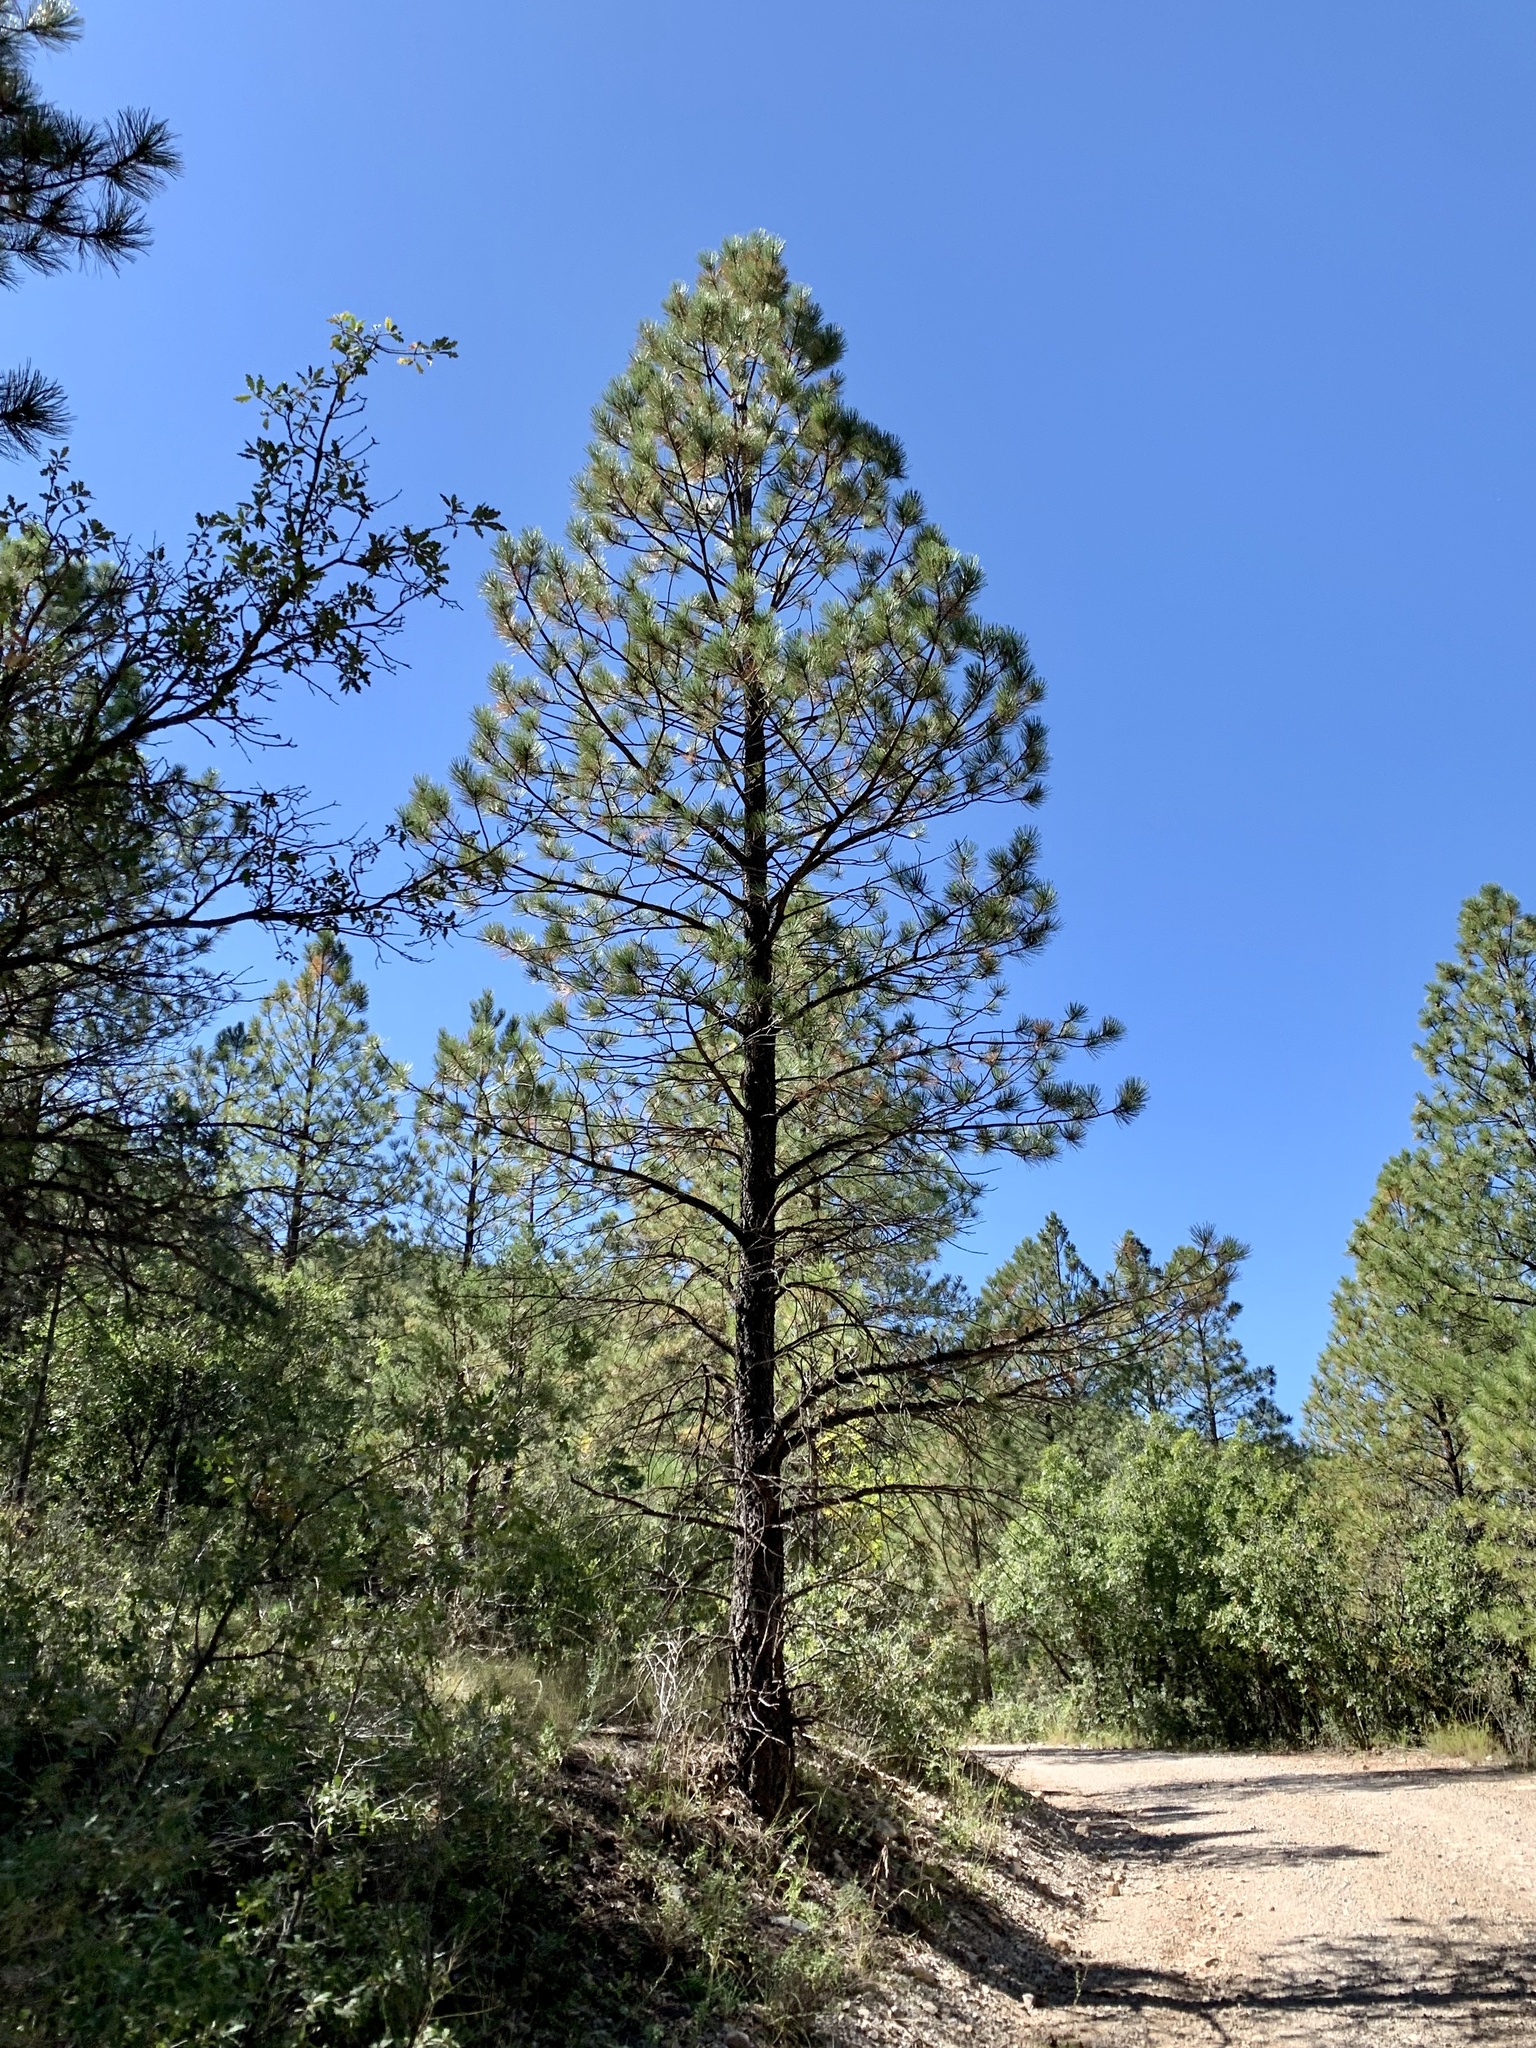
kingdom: Plantae
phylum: Tracheophyta
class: Pinopsida
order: Pinales
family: Pinaceae
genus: Pinus
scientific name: Pinus ponderosa
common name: Western yellow-pine
